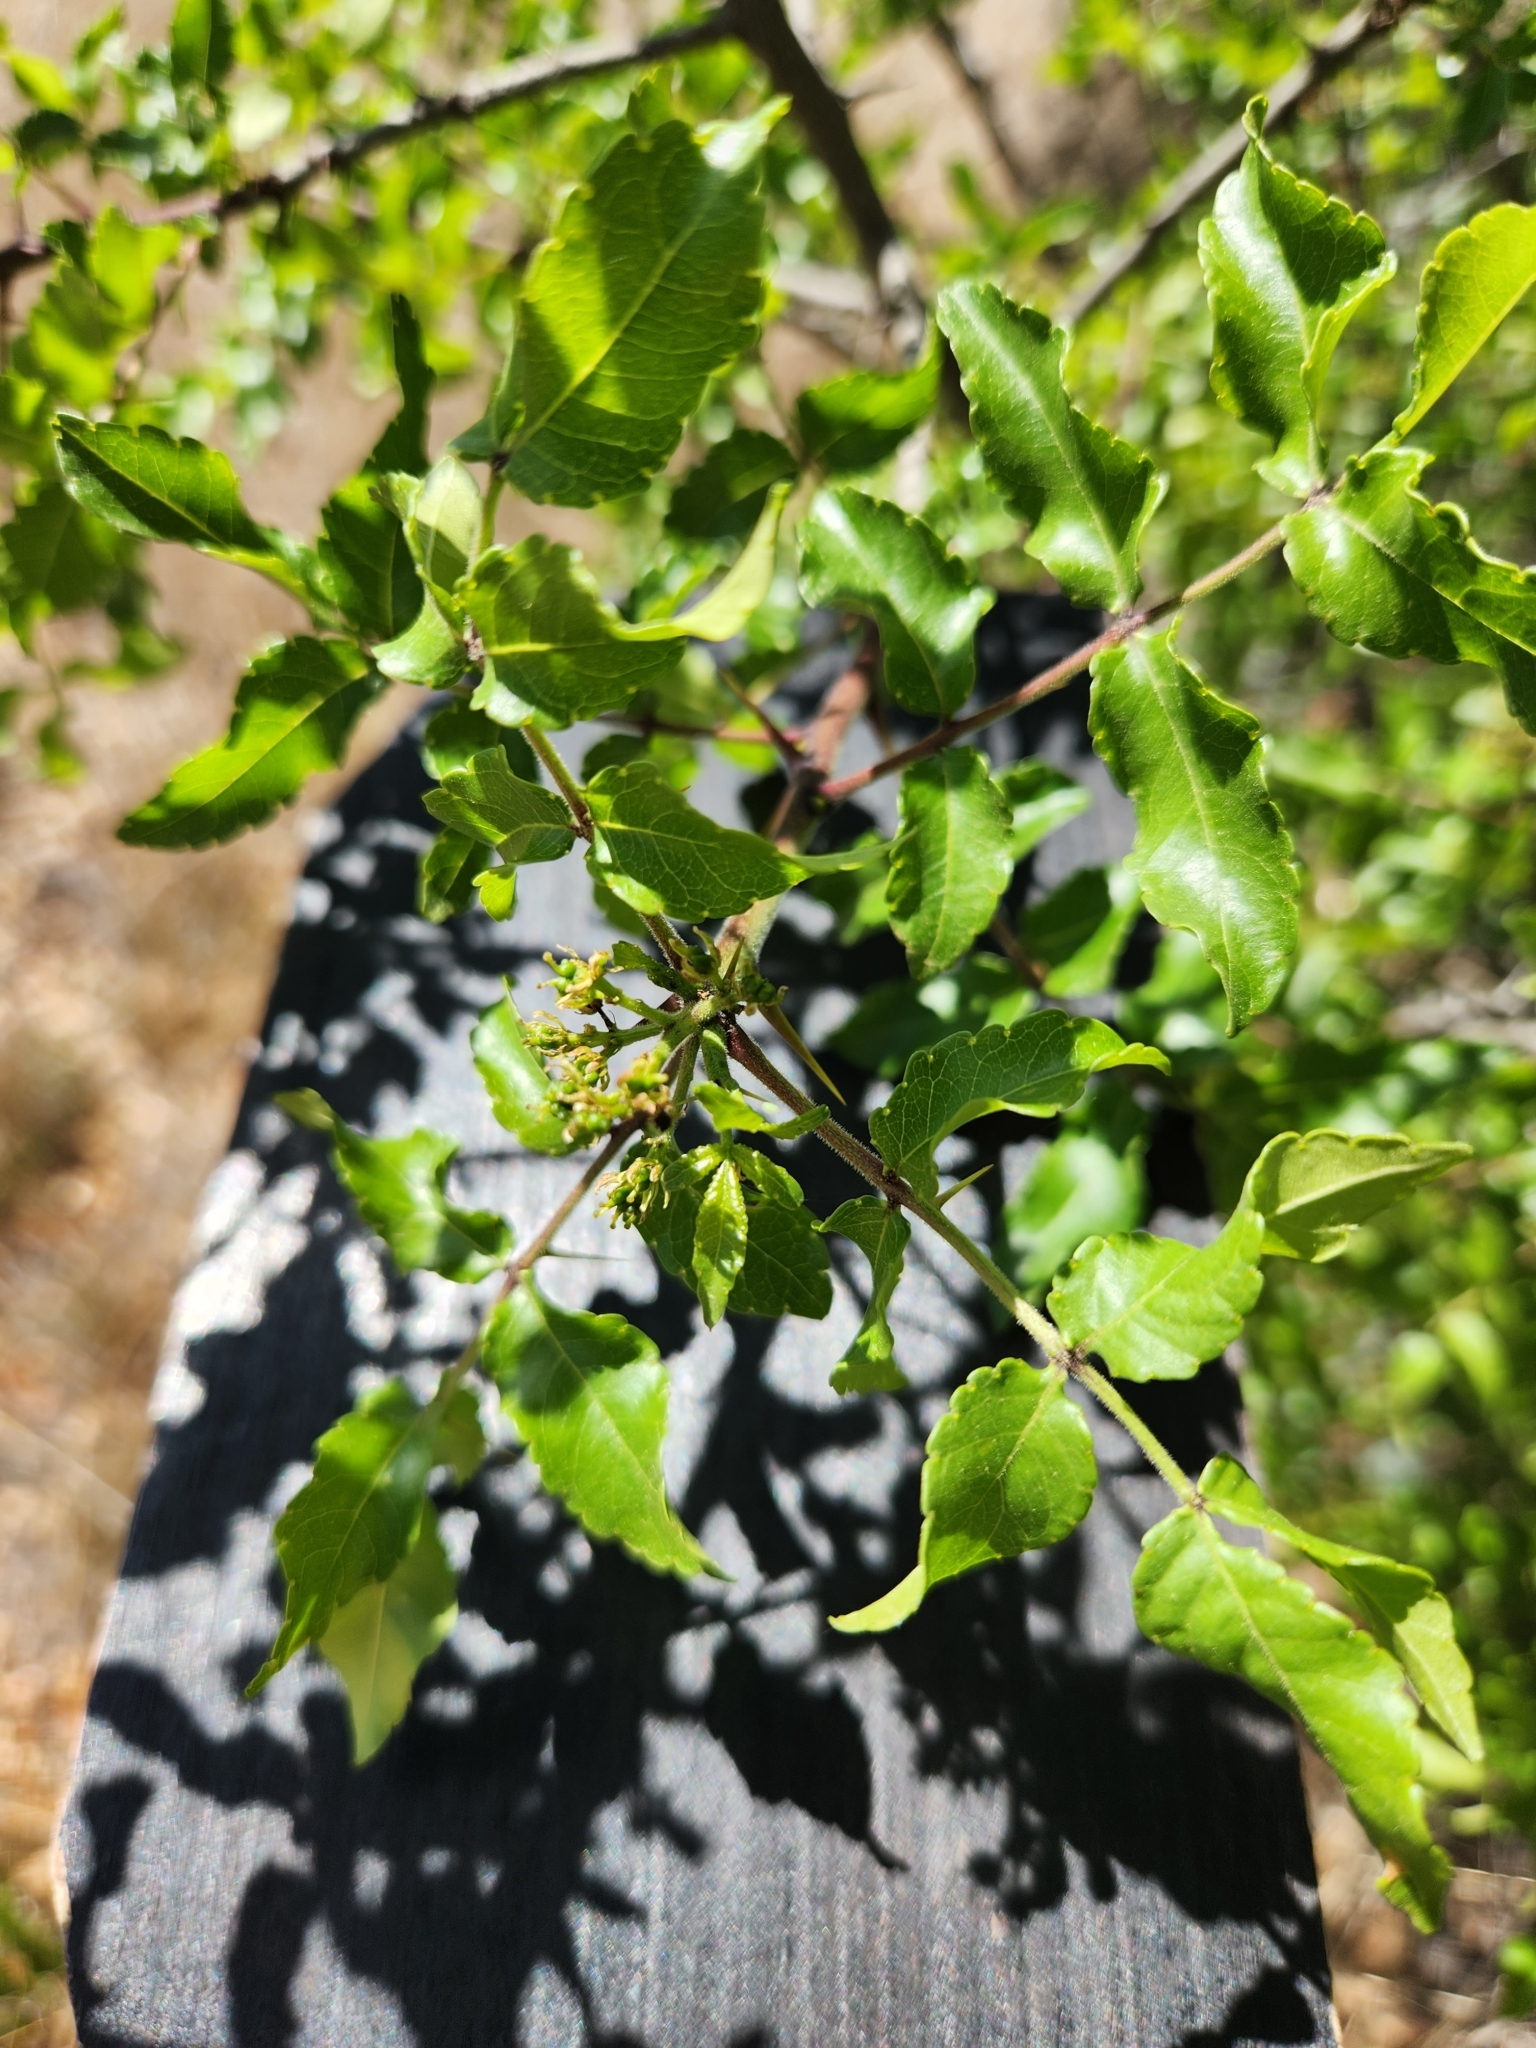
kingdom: Plantae
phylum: Tracheophyta
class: Magnoliopsida
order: Sapindales
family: Rutaceae
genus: Zanthoxylum
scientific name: Zanthoxylum clava-herculis
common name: Hercules'-club
